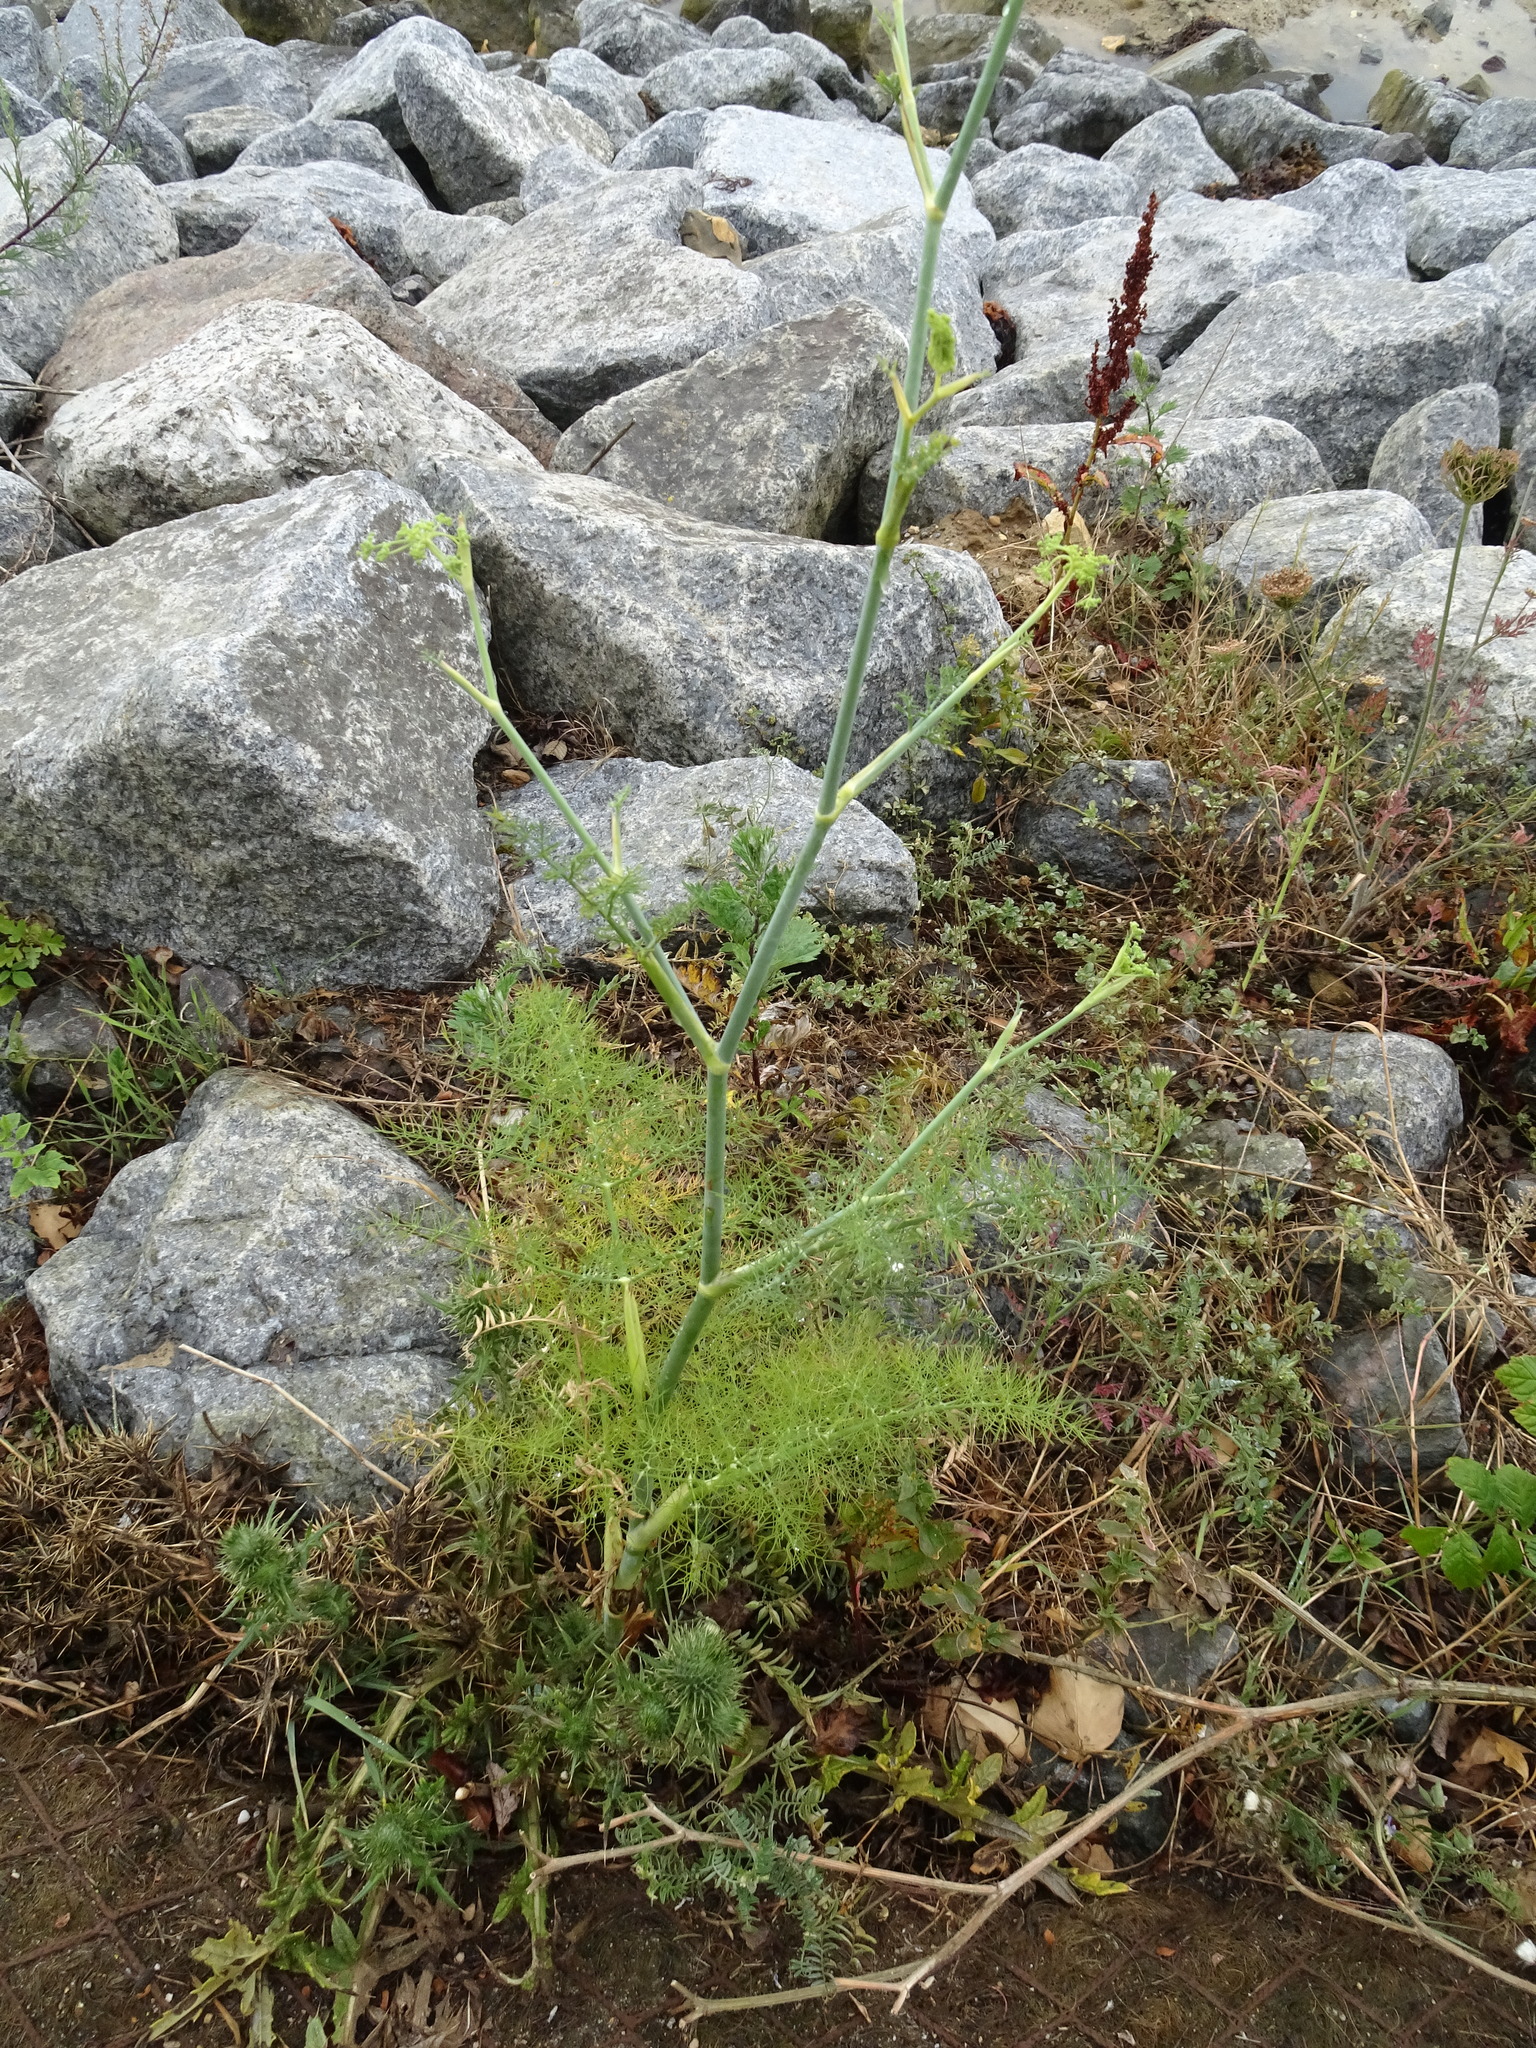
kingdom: Plantae
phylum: Tracheophyta
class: Magnoliopsida
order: Apiales
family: Apiaceae
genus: Foeniculum
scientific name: Foeniculum vulgare
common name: Fennel
